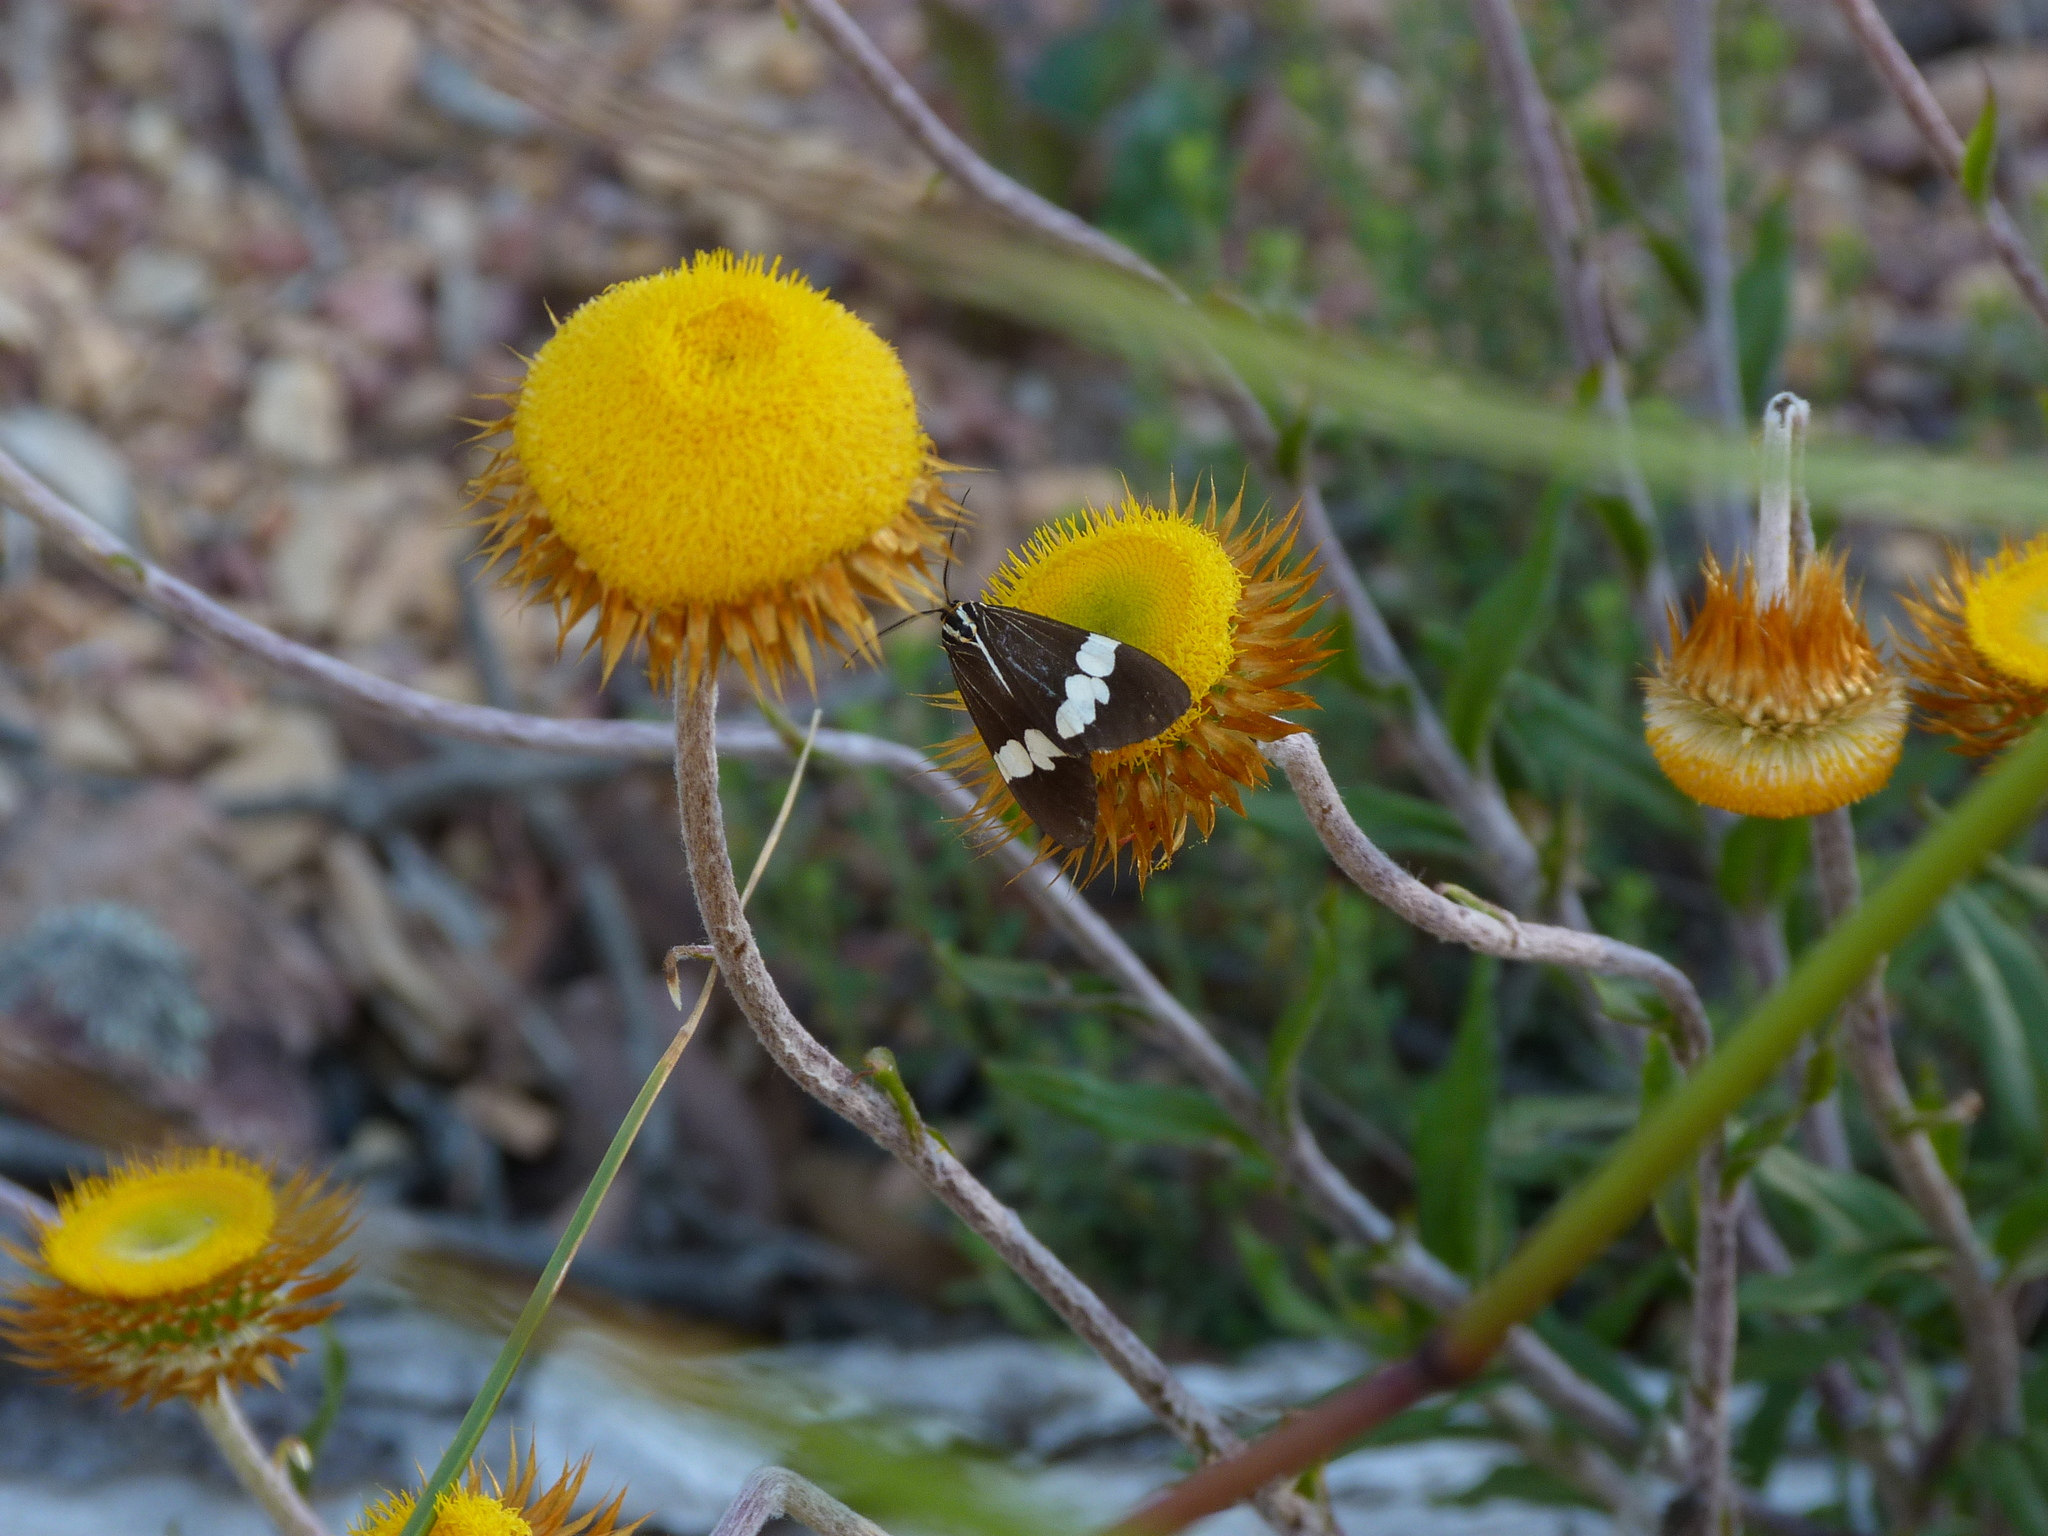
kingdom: Animalia
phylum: Arthropoda
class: Insecta
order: Lepidoptera
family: Erebidae
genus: Nyctemera
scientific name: Nyctemera amicus
